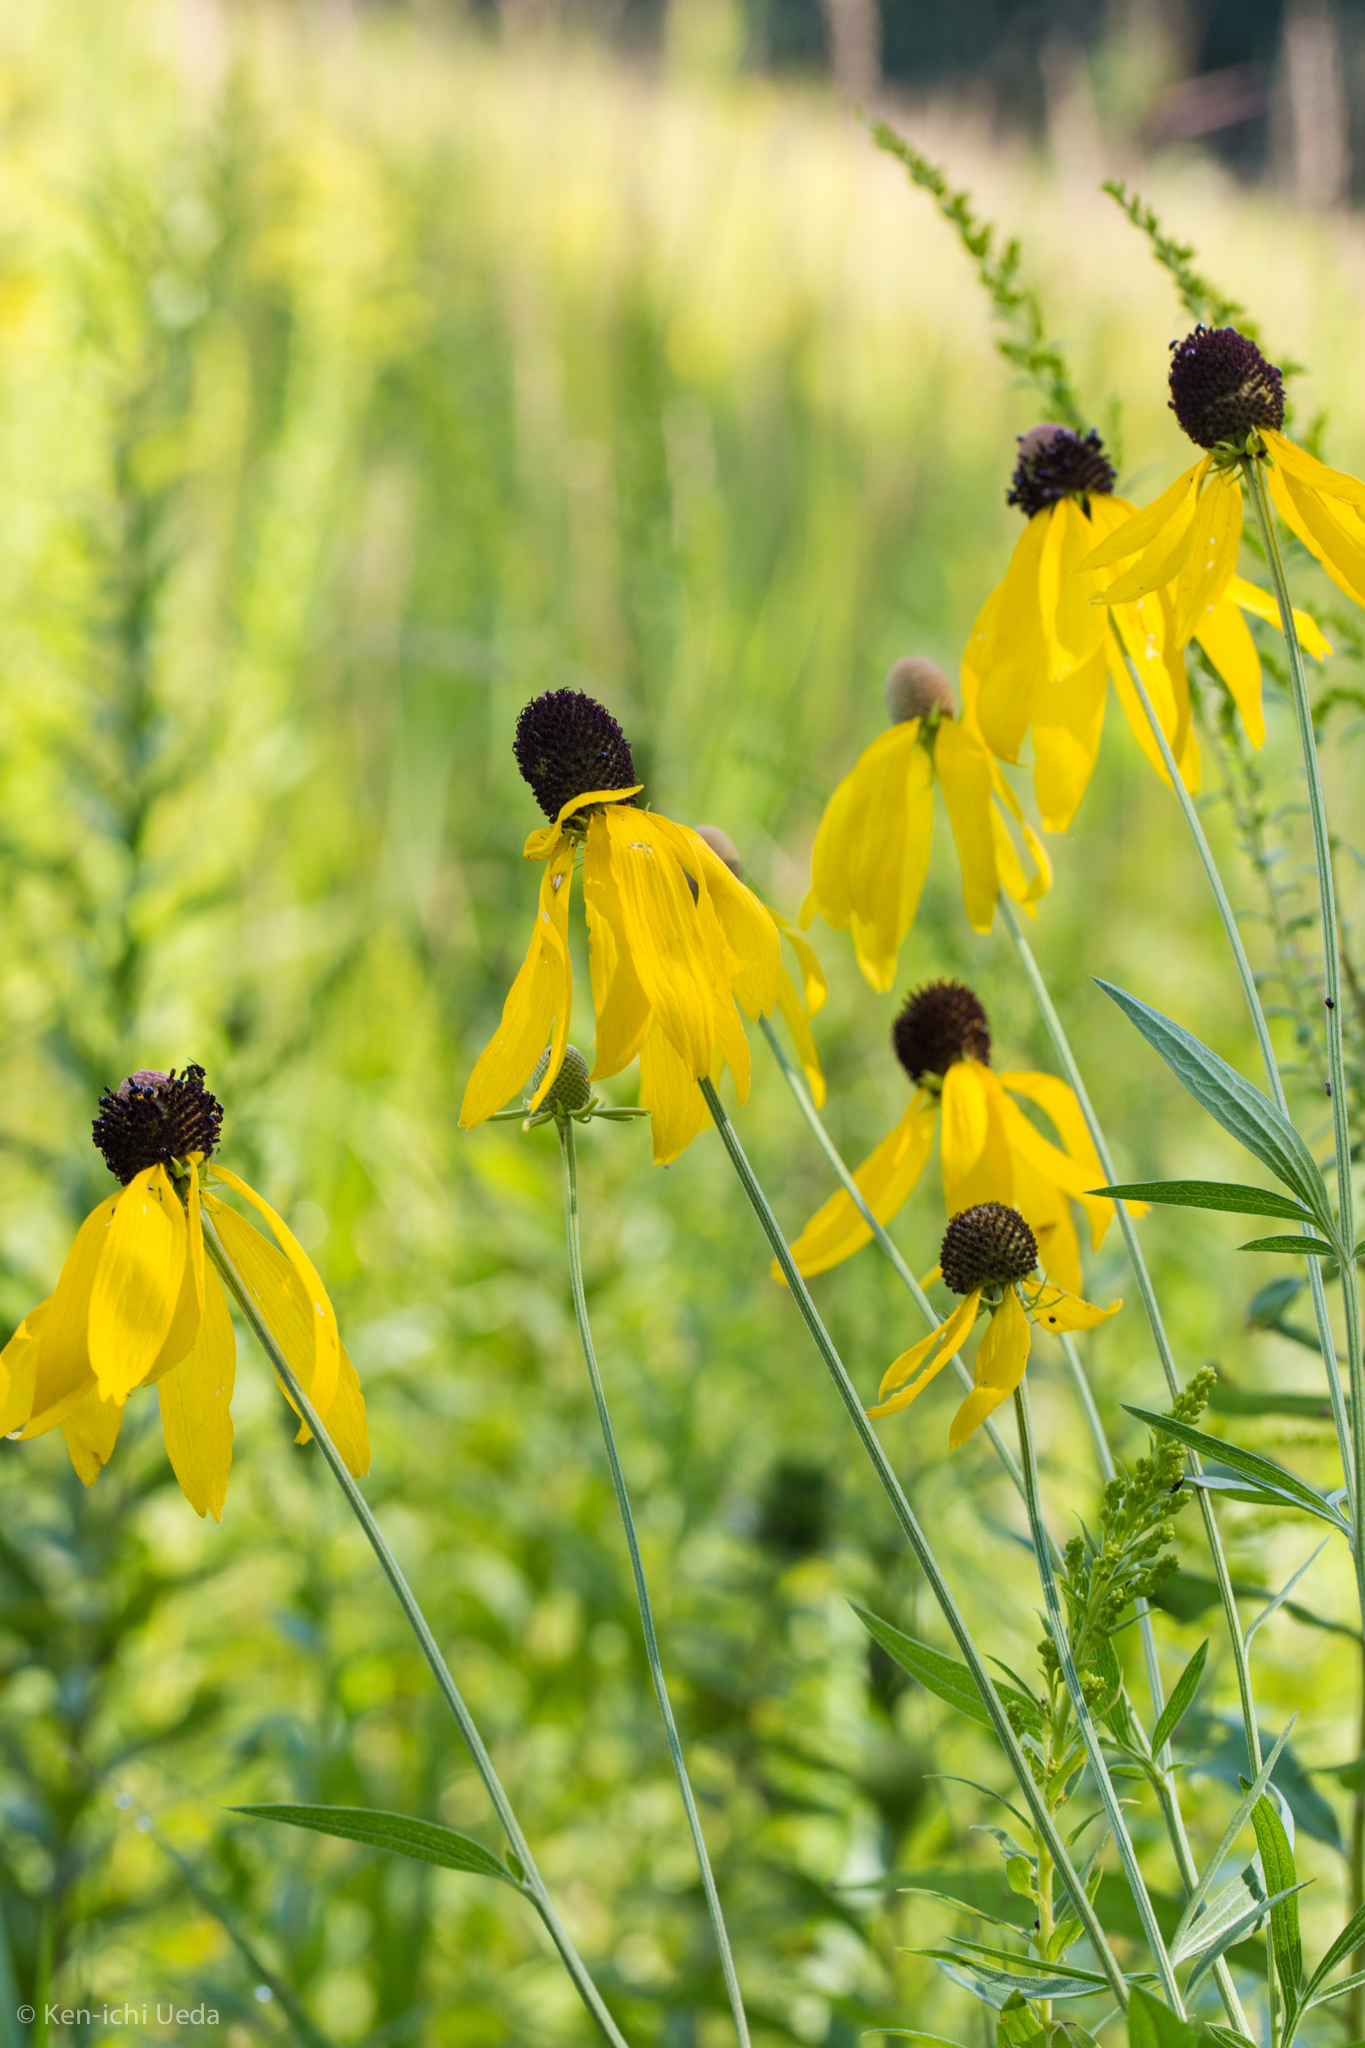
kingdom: Plantae
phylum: Tracheophyta
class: Magnoliopsida
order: Asterales
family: Asteraceae
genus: Ratibida
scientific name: Ratibida pinnata
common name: Drooping prairie-coneflower
